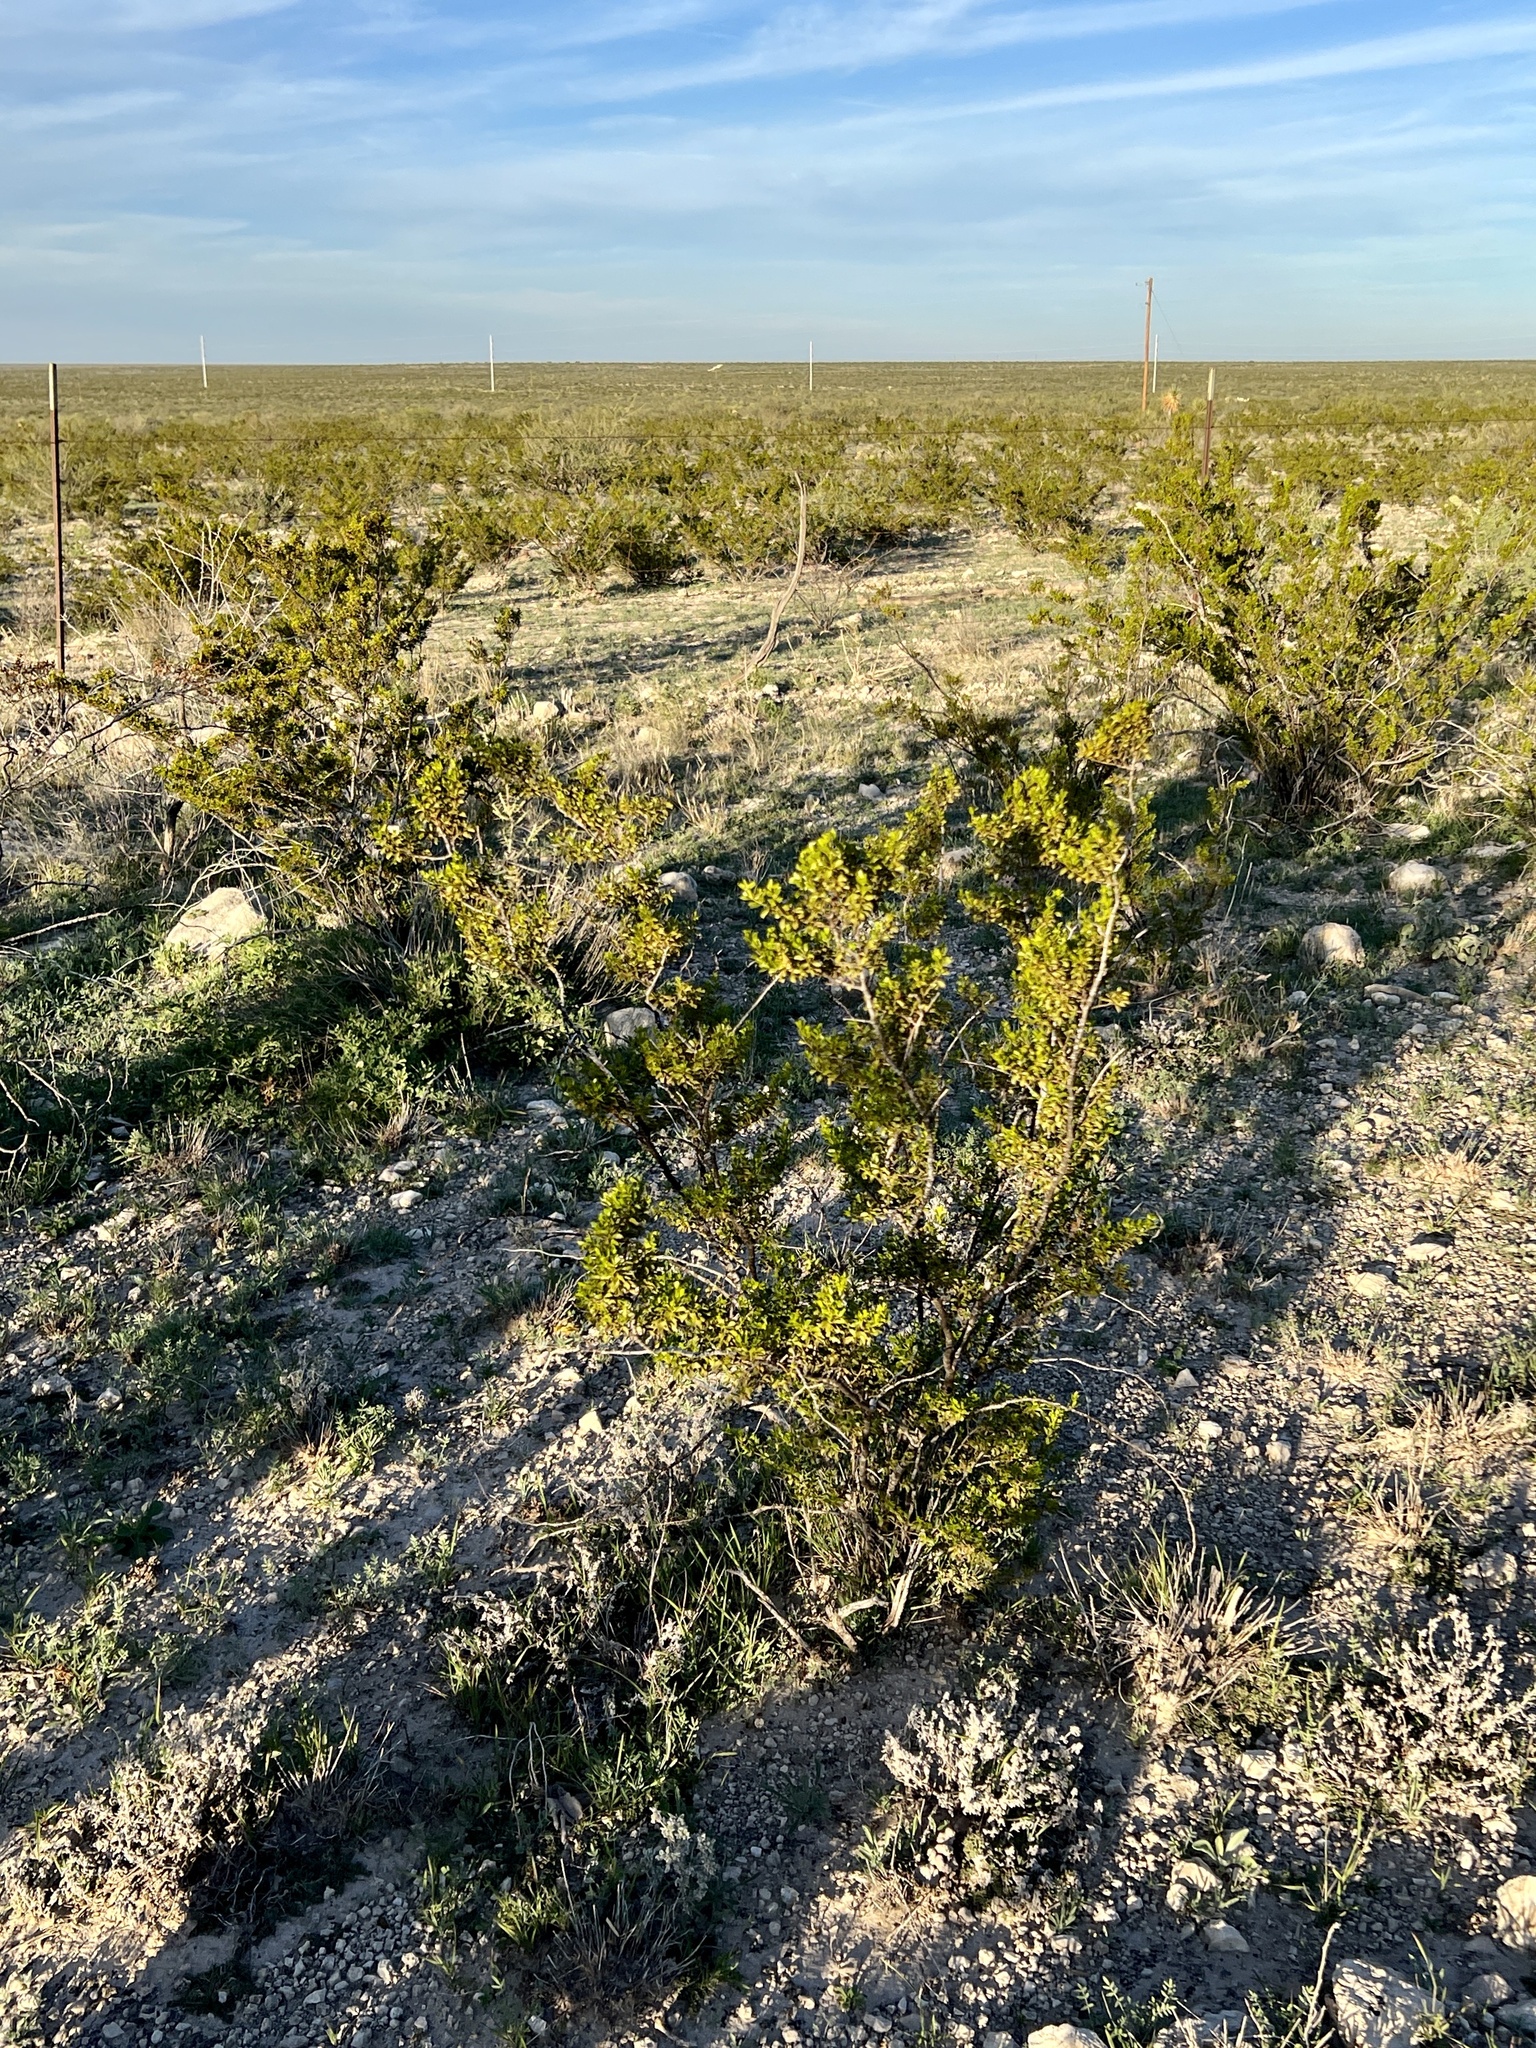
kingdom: Plantae
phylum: Tracheophyta
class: Magnoliopsida
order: Zygophyllales
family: Zygophyllaceae
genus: Larrea
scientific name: Larrea tridentata
